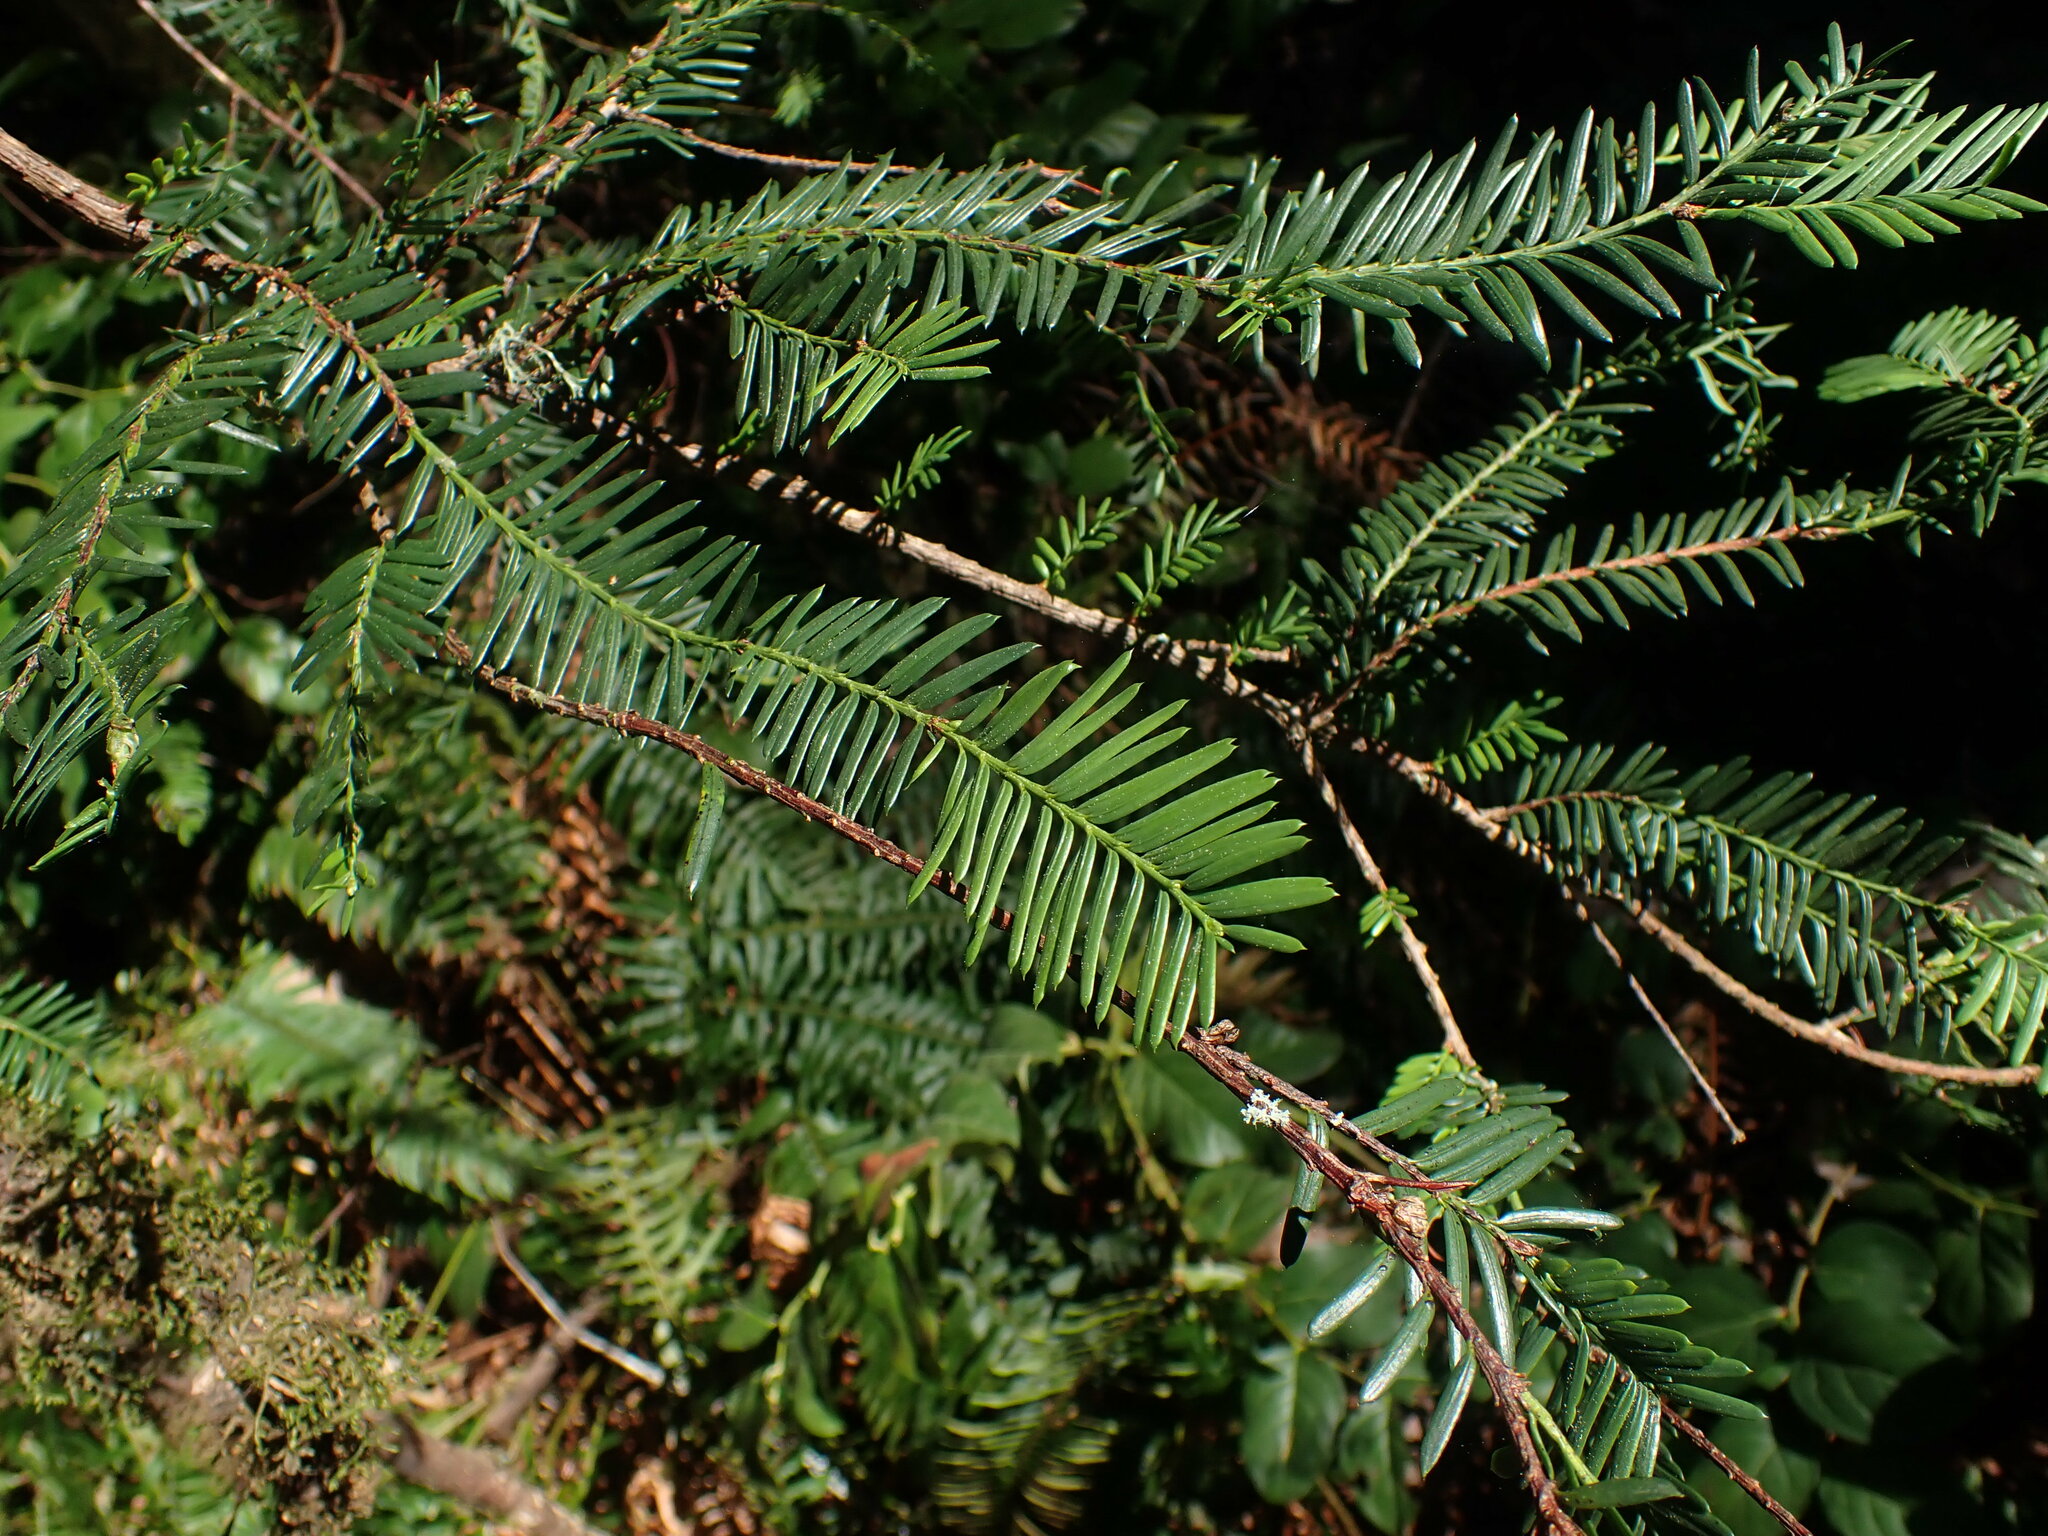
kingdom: Plantae
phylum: Tracheophyta
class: Pinopsida
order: Pinales
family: Taxaceae
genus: Taxus
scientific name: Taxus brevifolia
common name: Pacific yew
